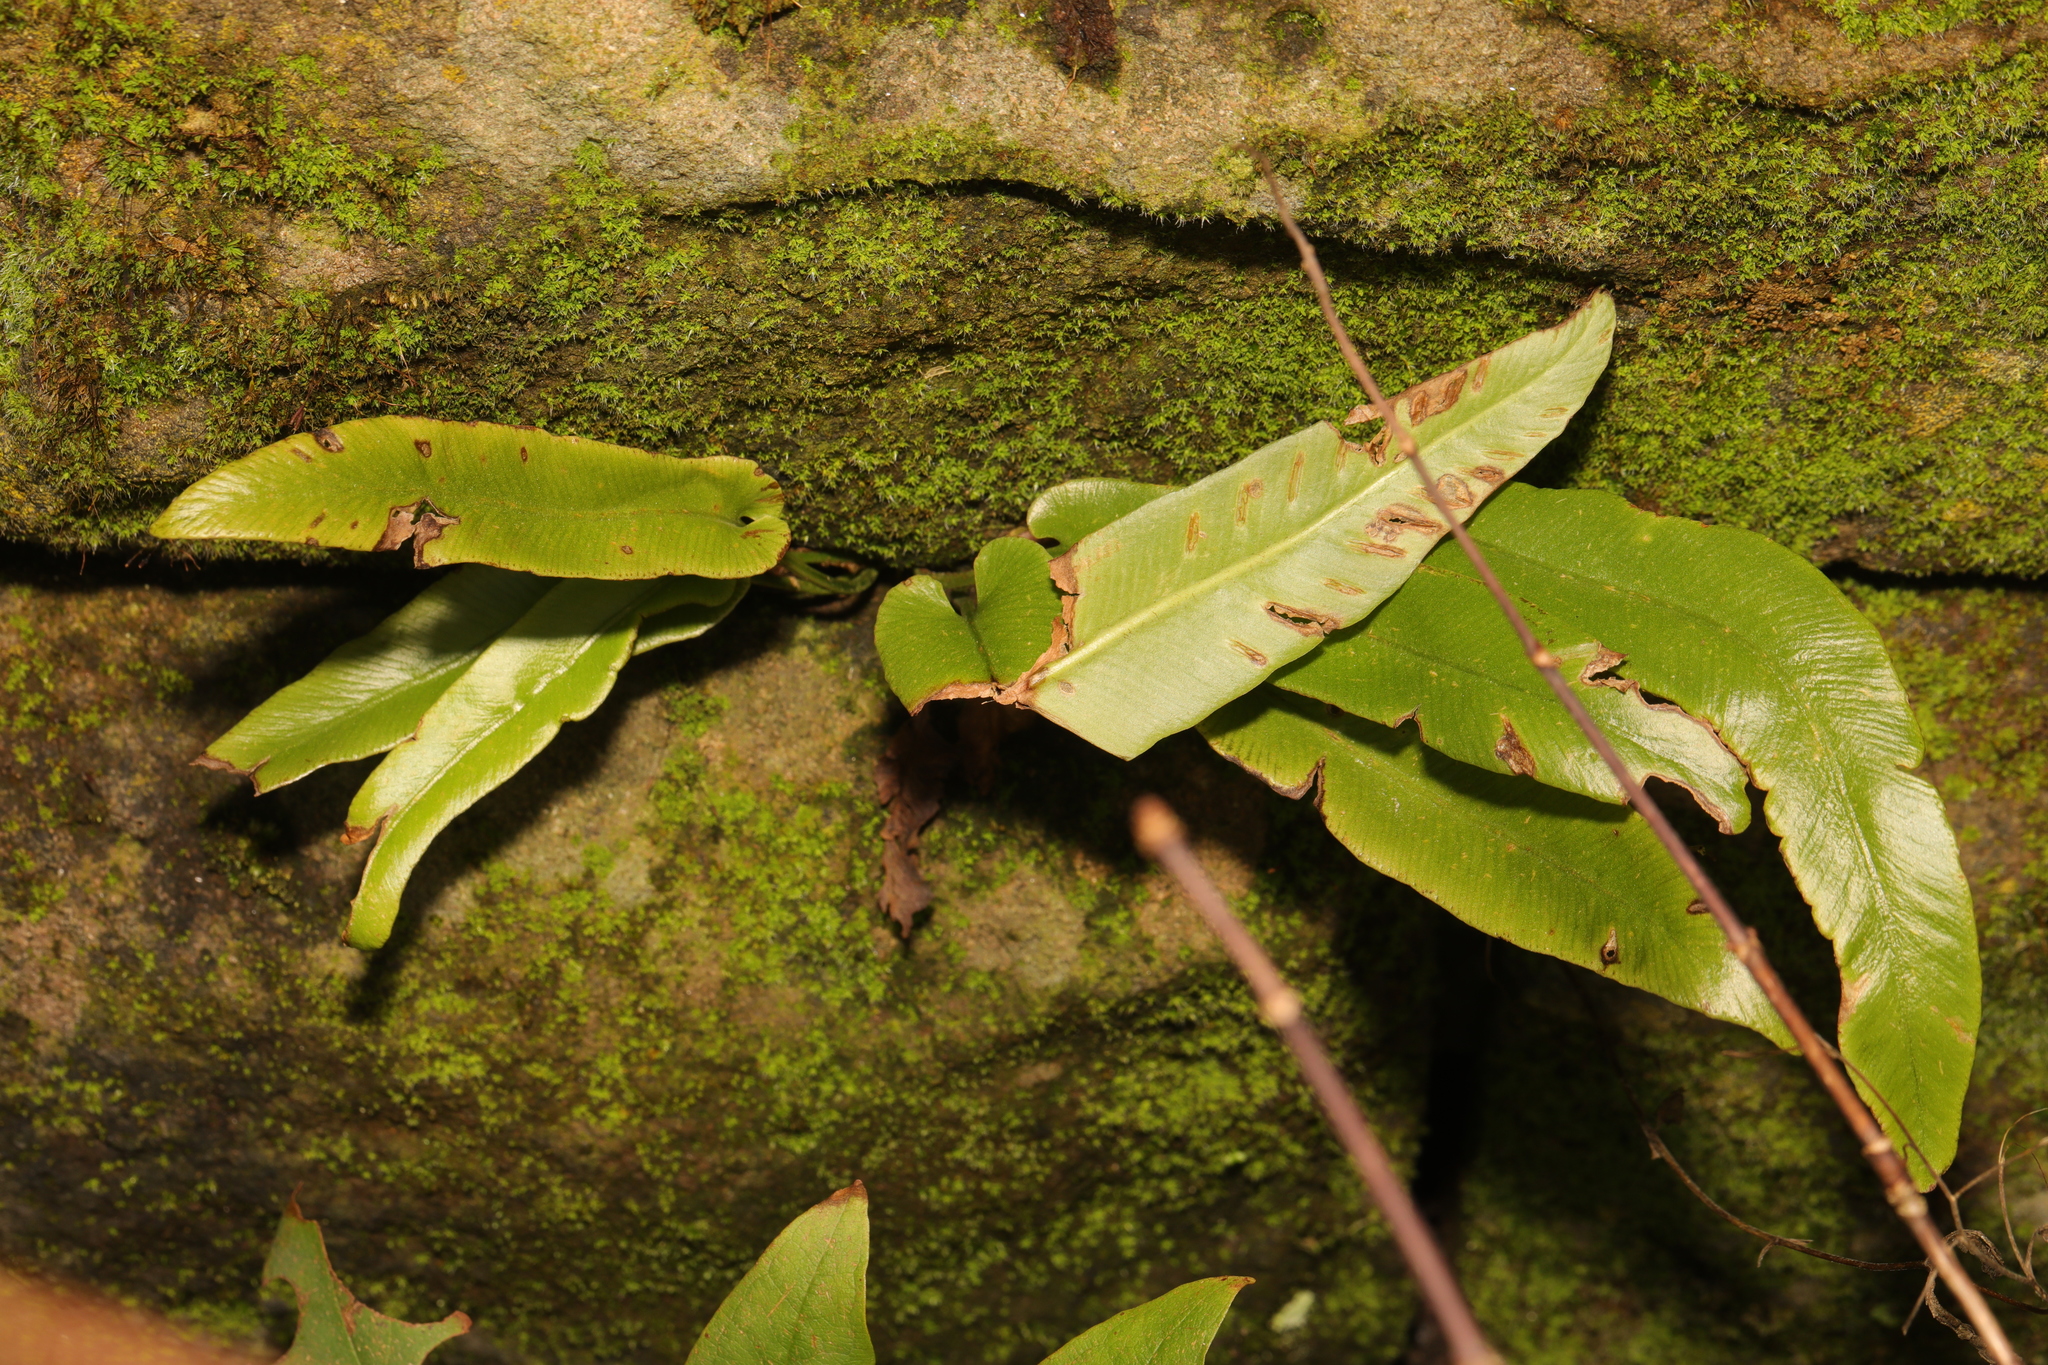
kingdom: Plantae
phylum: Tracheophyta
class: Polypodiopsida
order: Polypodiales
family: Aspleniaceae
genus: Asplenium
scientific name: Asplenium scolopendrium
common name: Hart's-tongue fern
